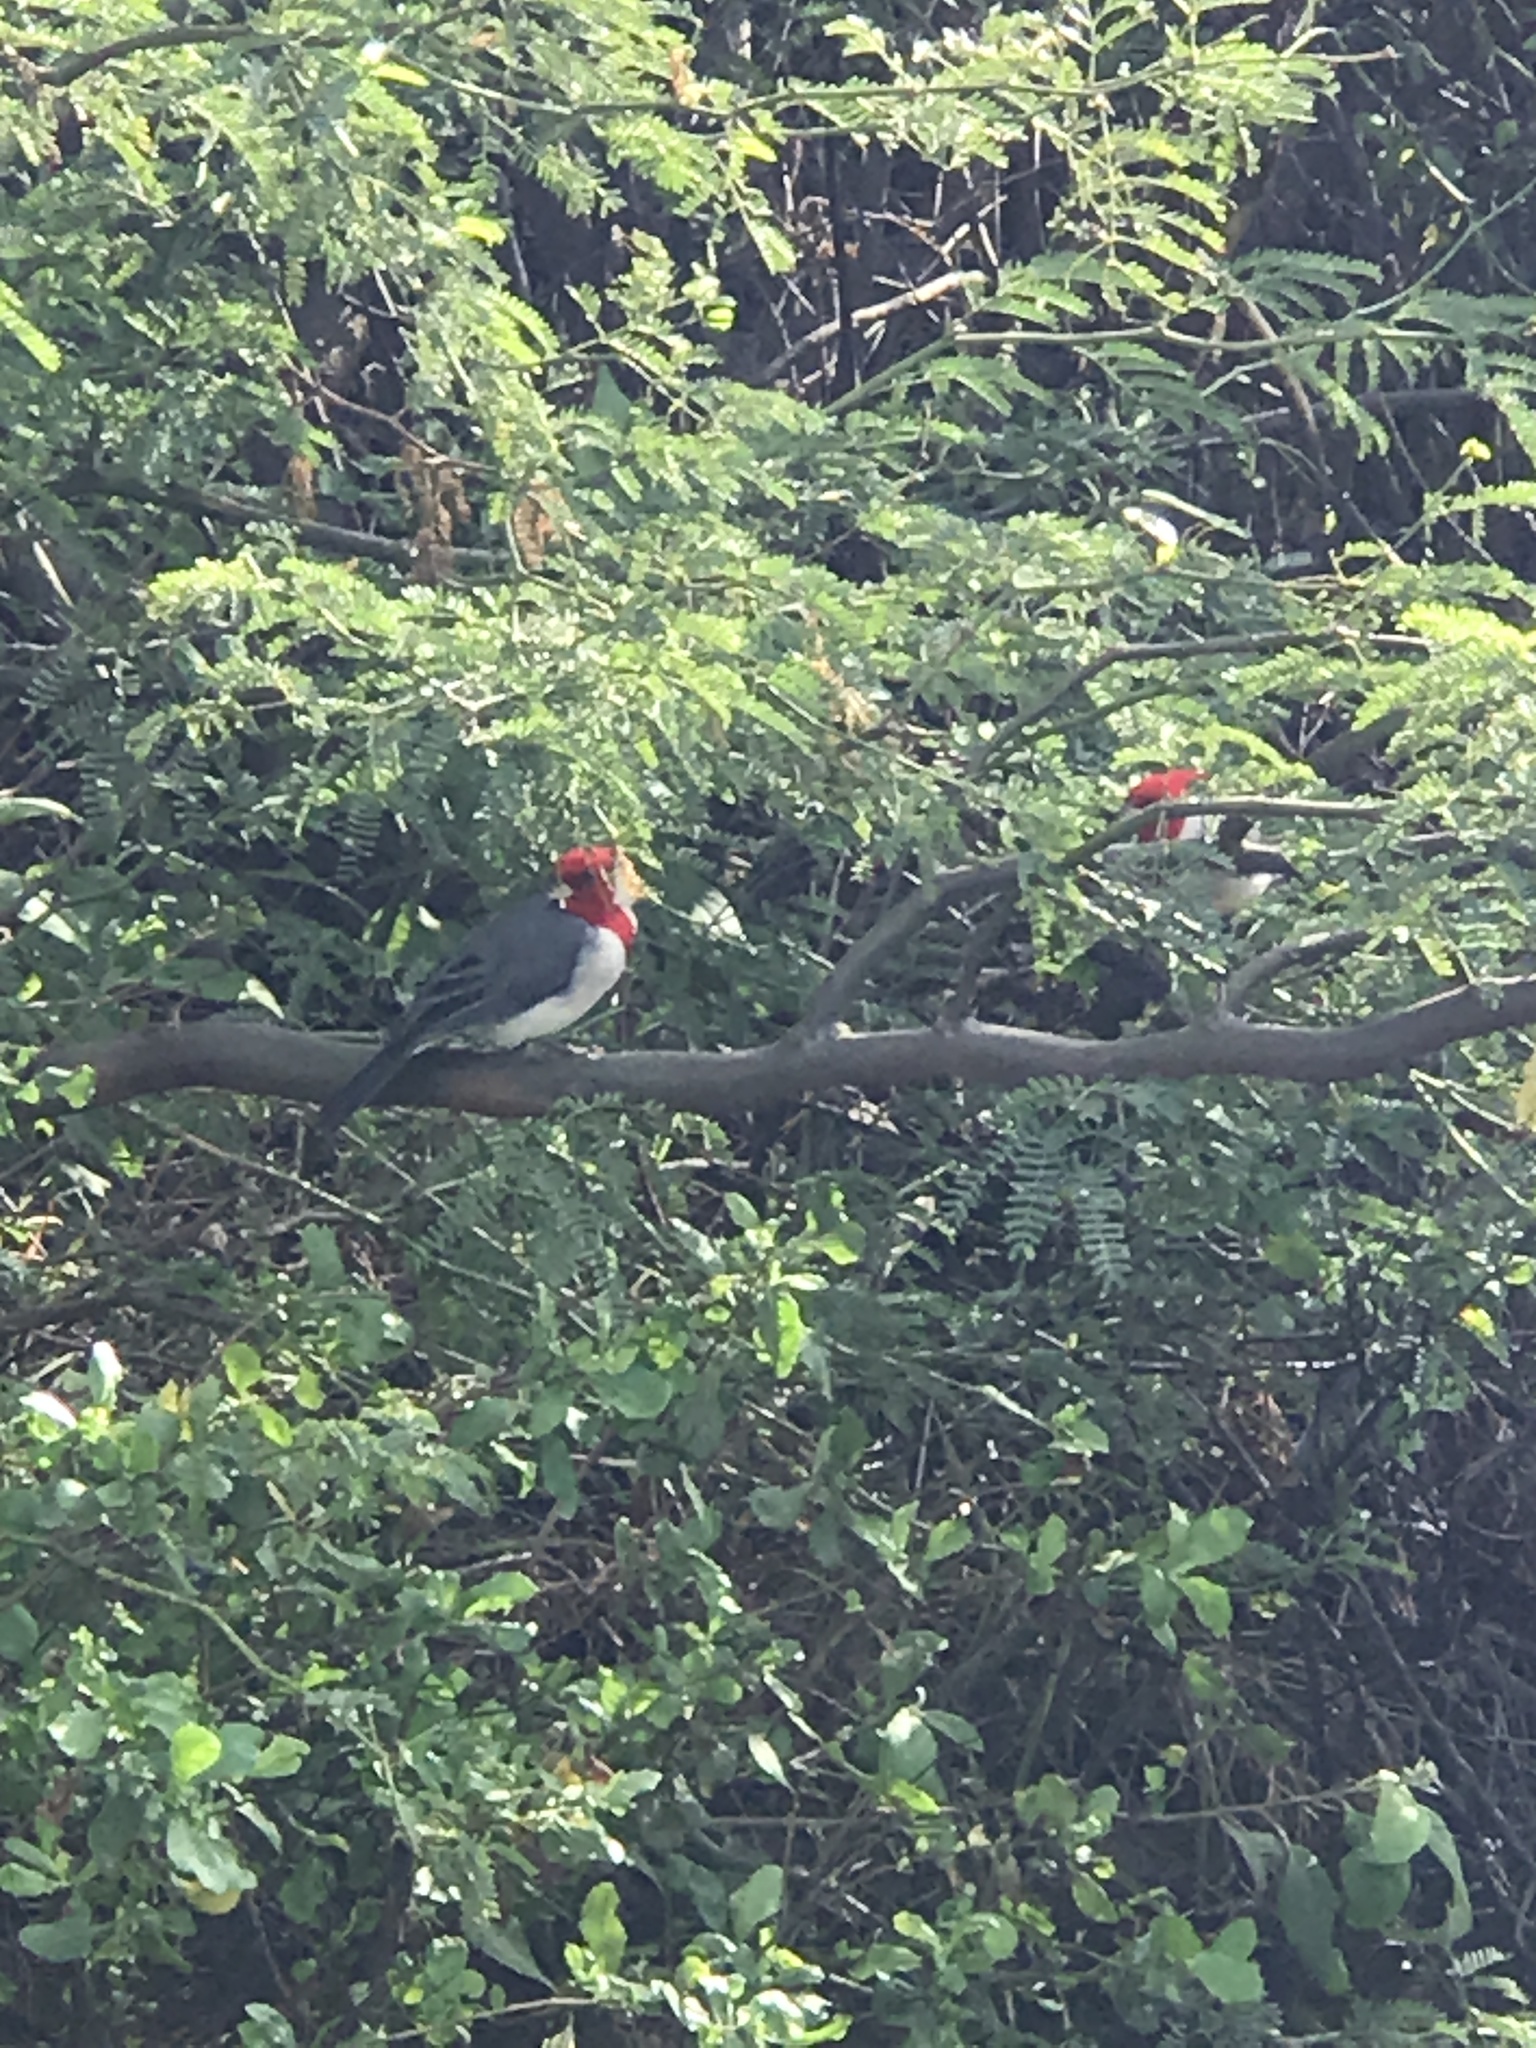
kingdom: Animalia
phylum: Chordata
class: Aves
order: Passeriformes
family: Thraupidae
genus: Paroaria
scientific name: Paroaria coronata
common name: Red-crested cardinal
